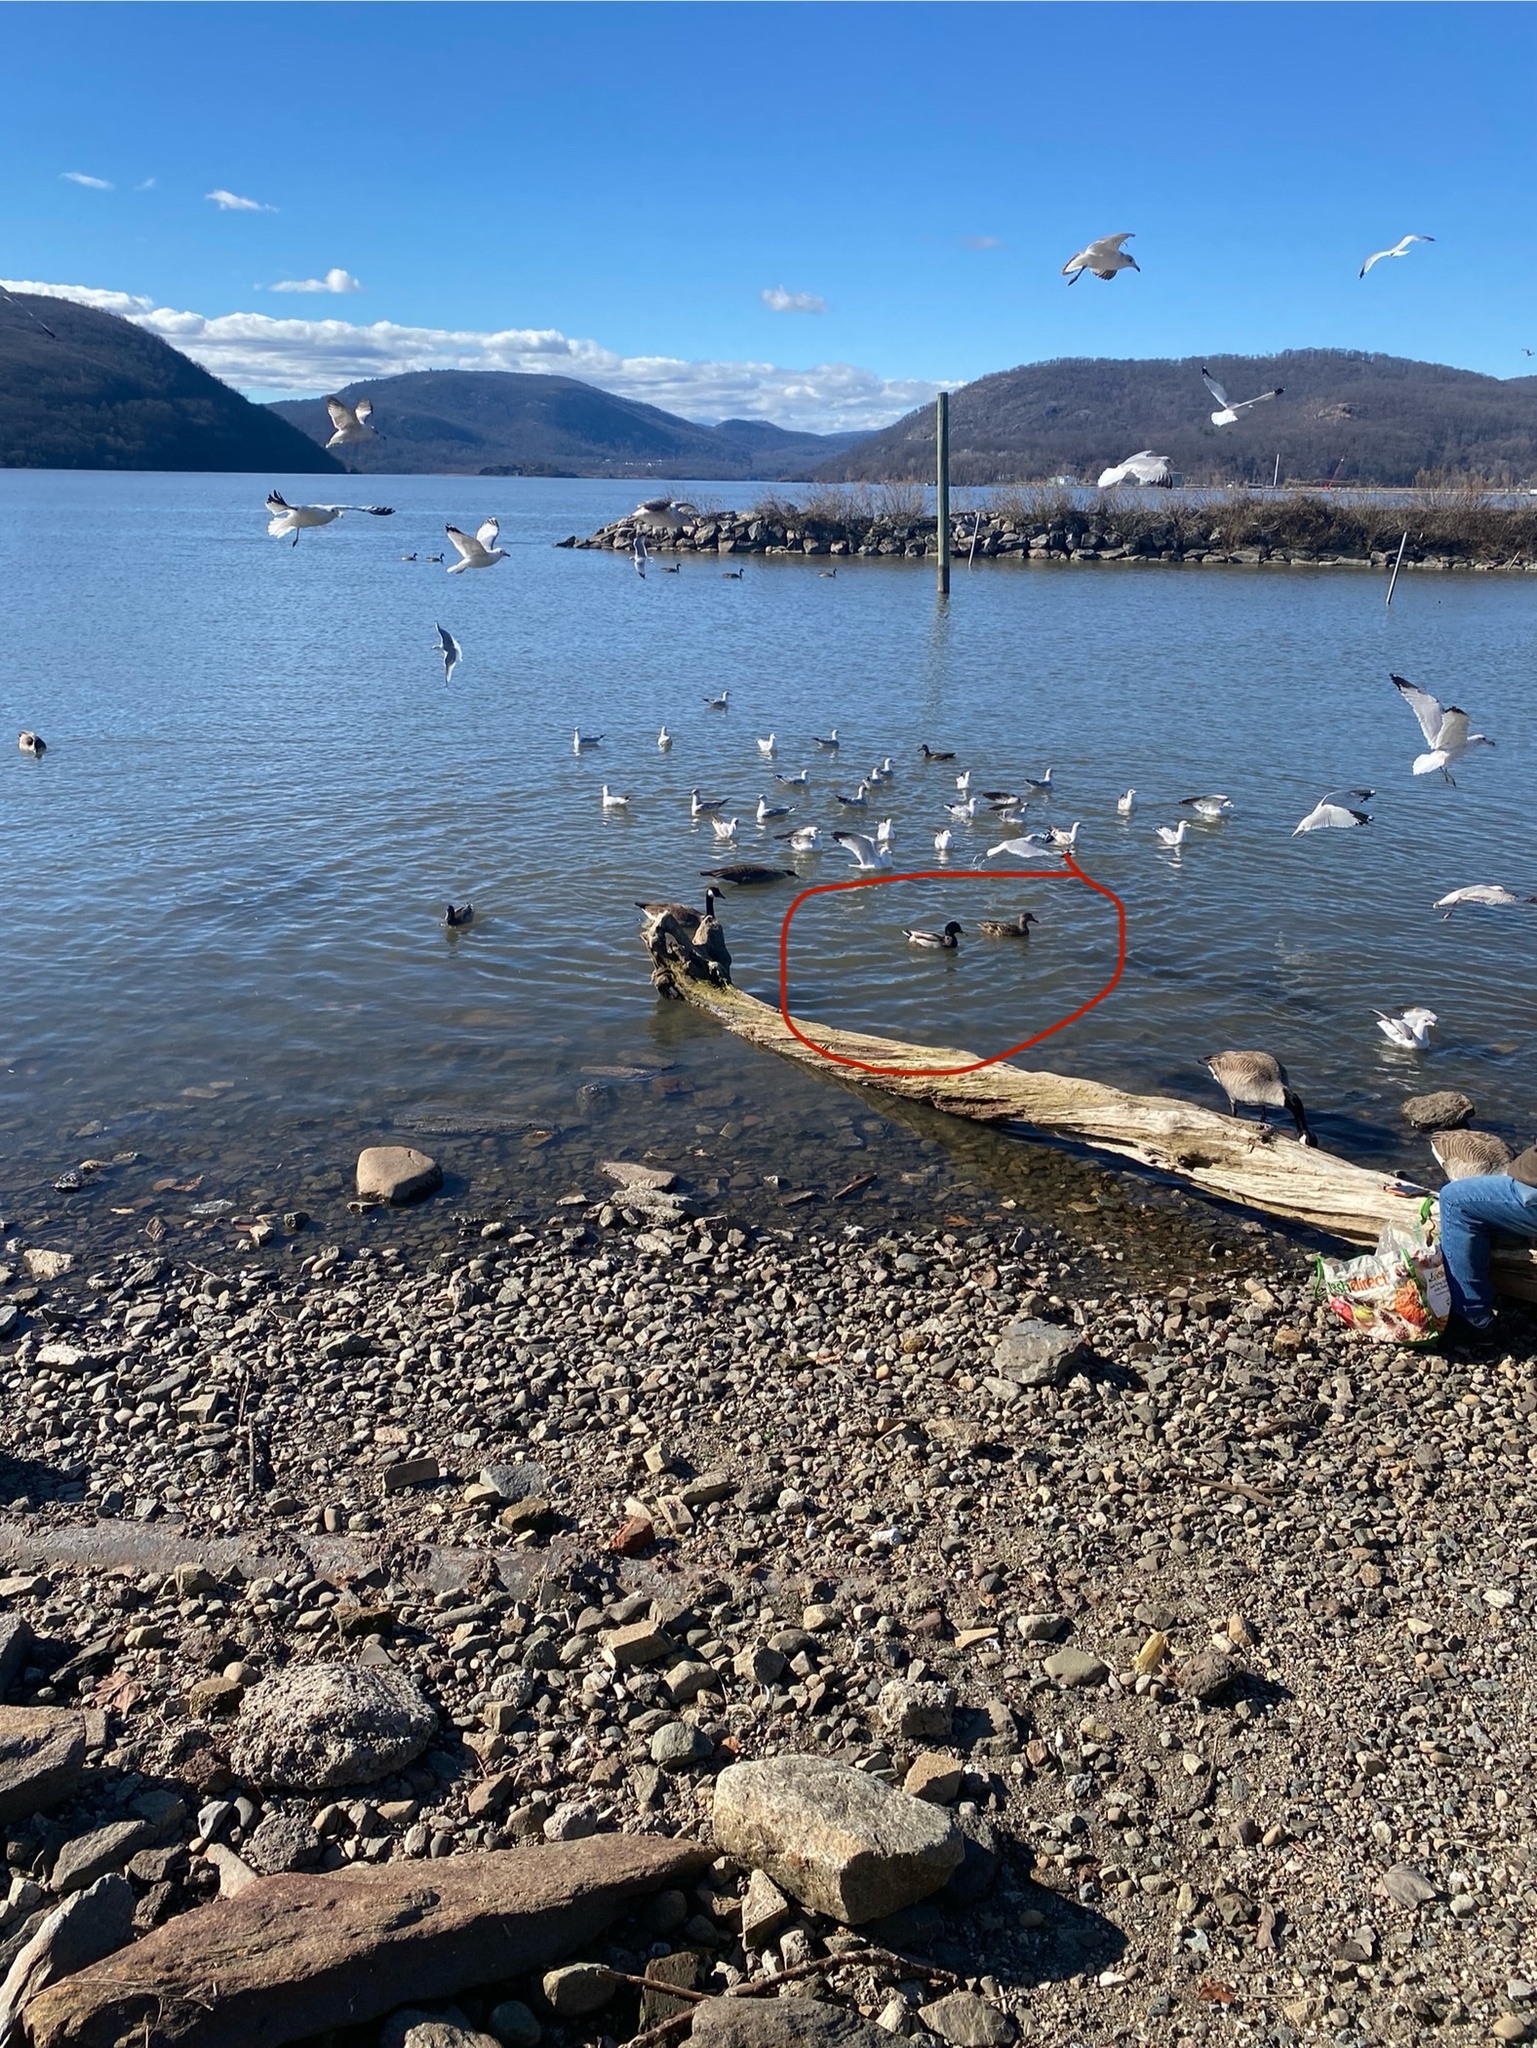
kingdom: Animalia
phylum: Chordata
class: Aves
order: Anseriformes
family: Anatidae
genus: Anas
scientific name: Anas platyrhynchos
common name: Mallard
